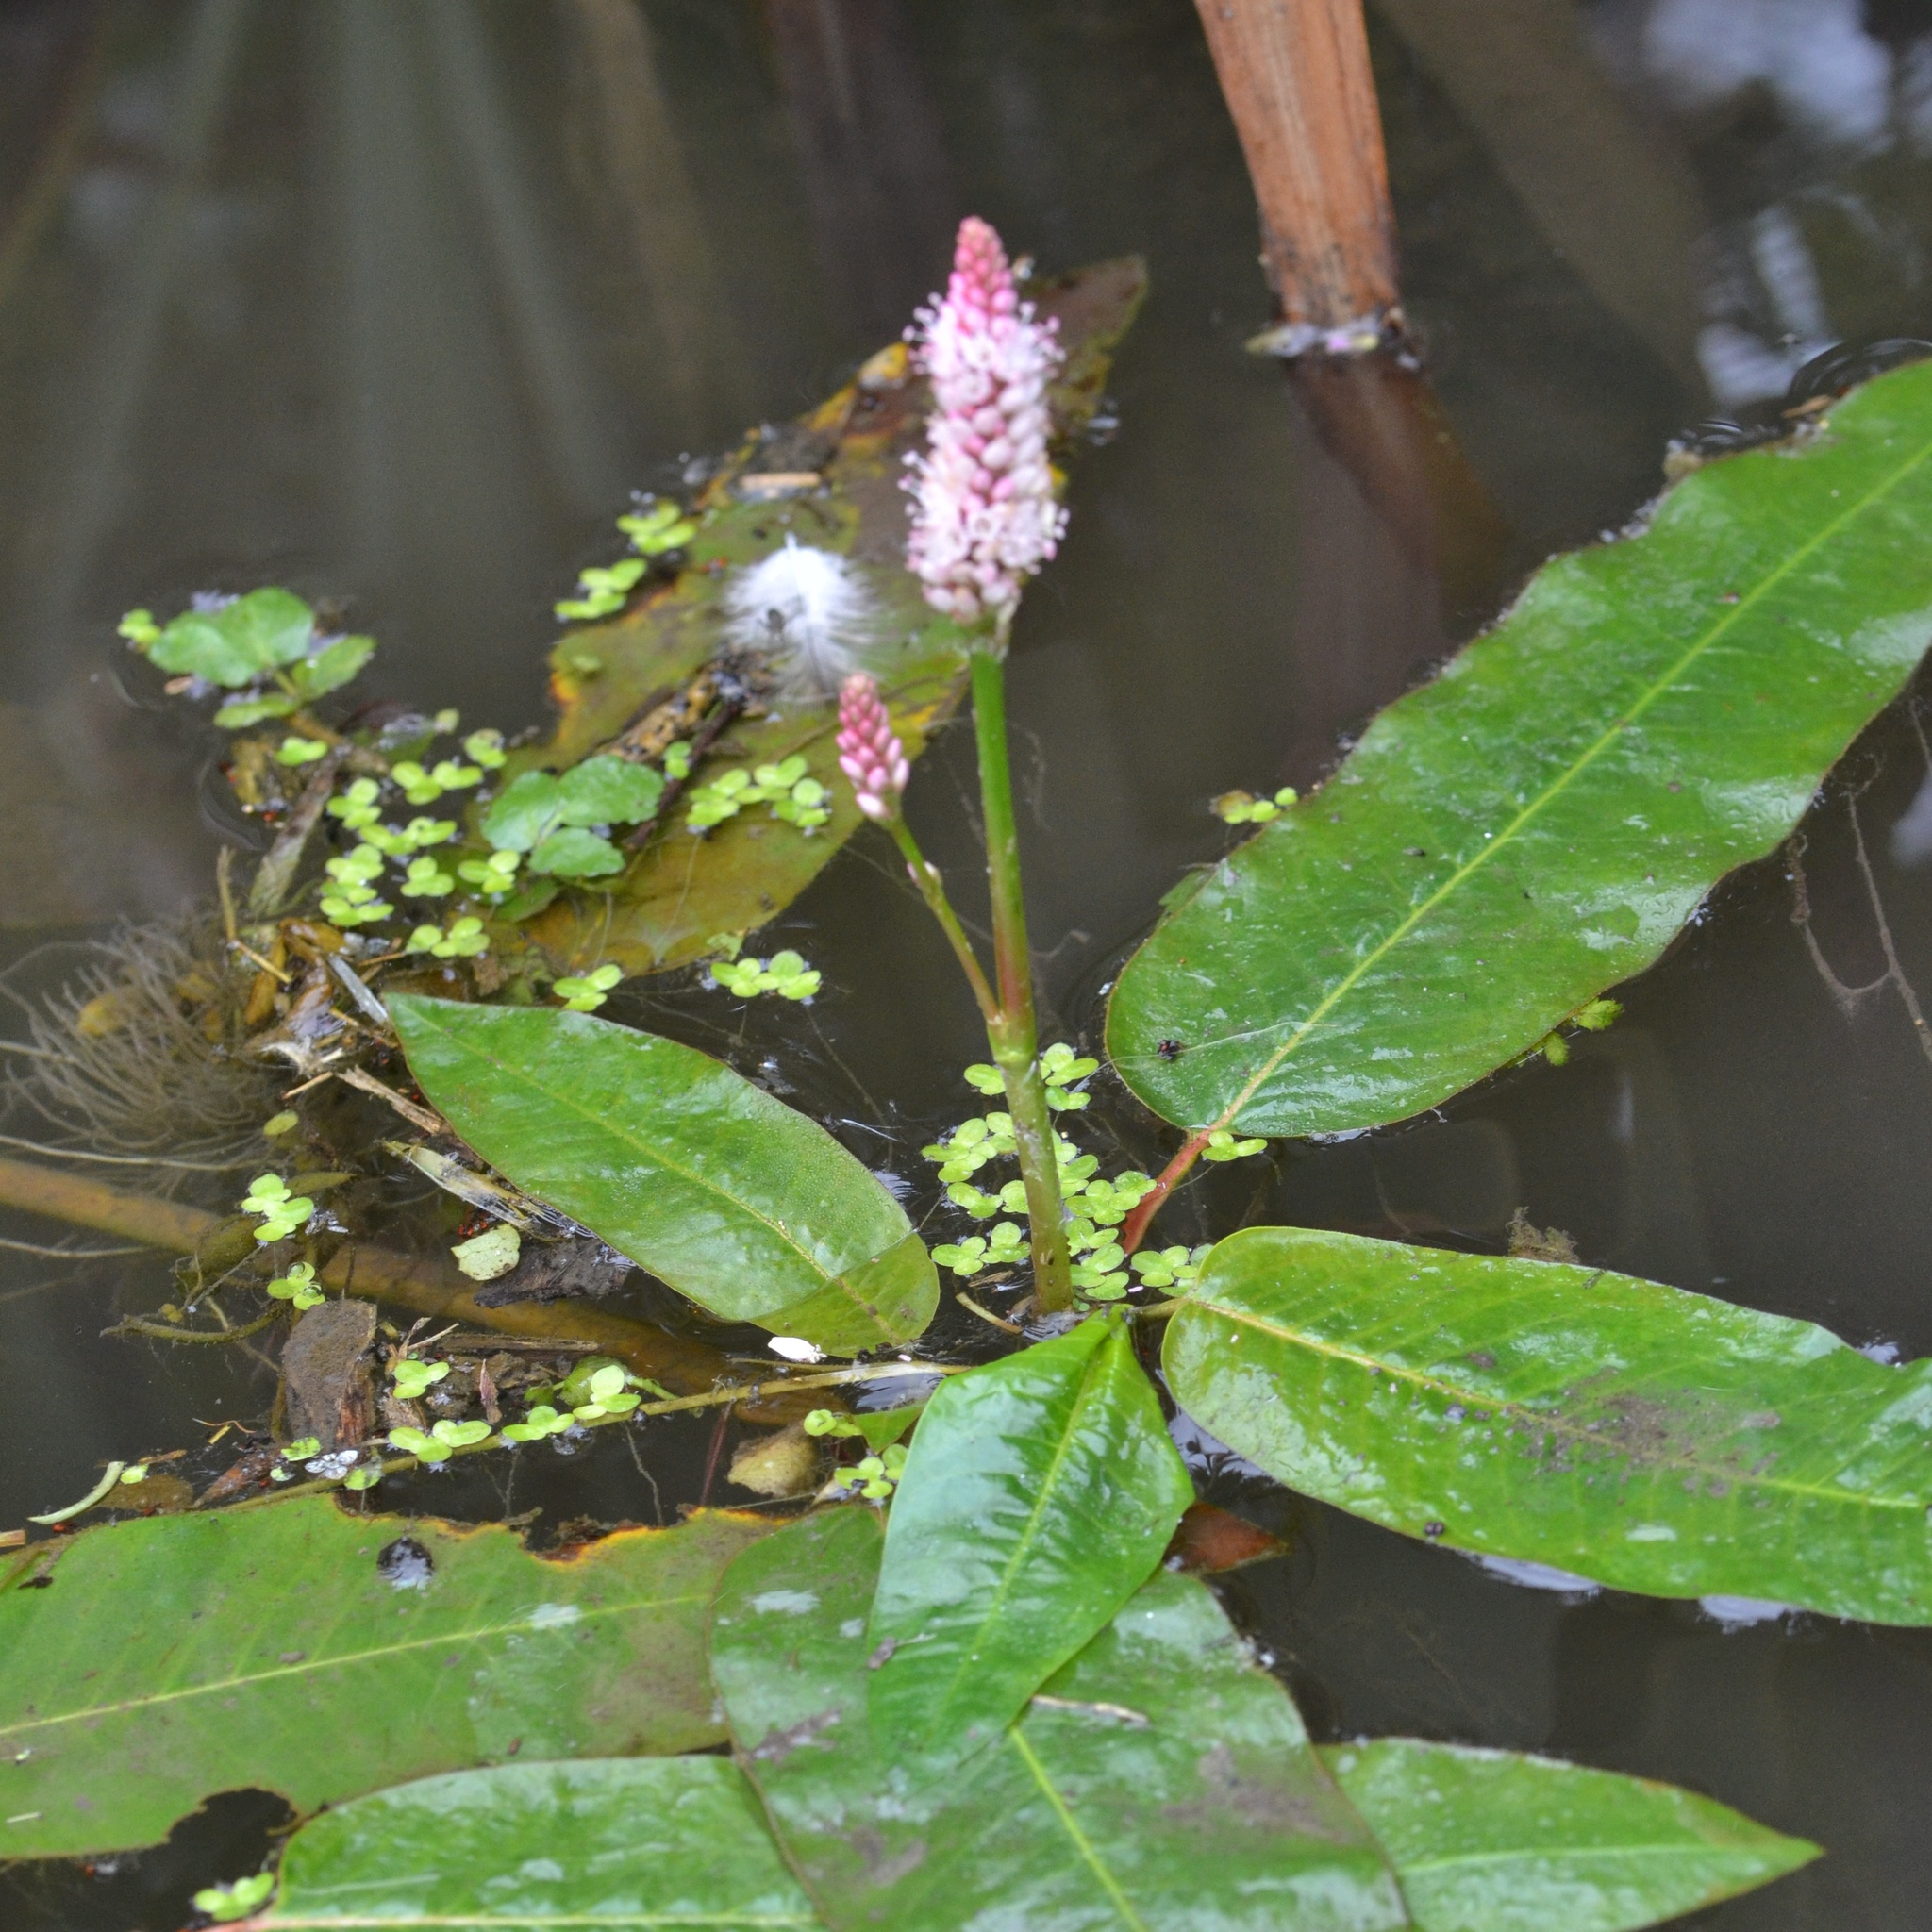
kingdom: Plantae
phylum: Tracheophyta
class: Magnoliopsida
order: Caryophyllales
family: Polygonaceae
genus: Persicaria
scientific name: Persicaria amphibia
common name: Amphibious bistort
